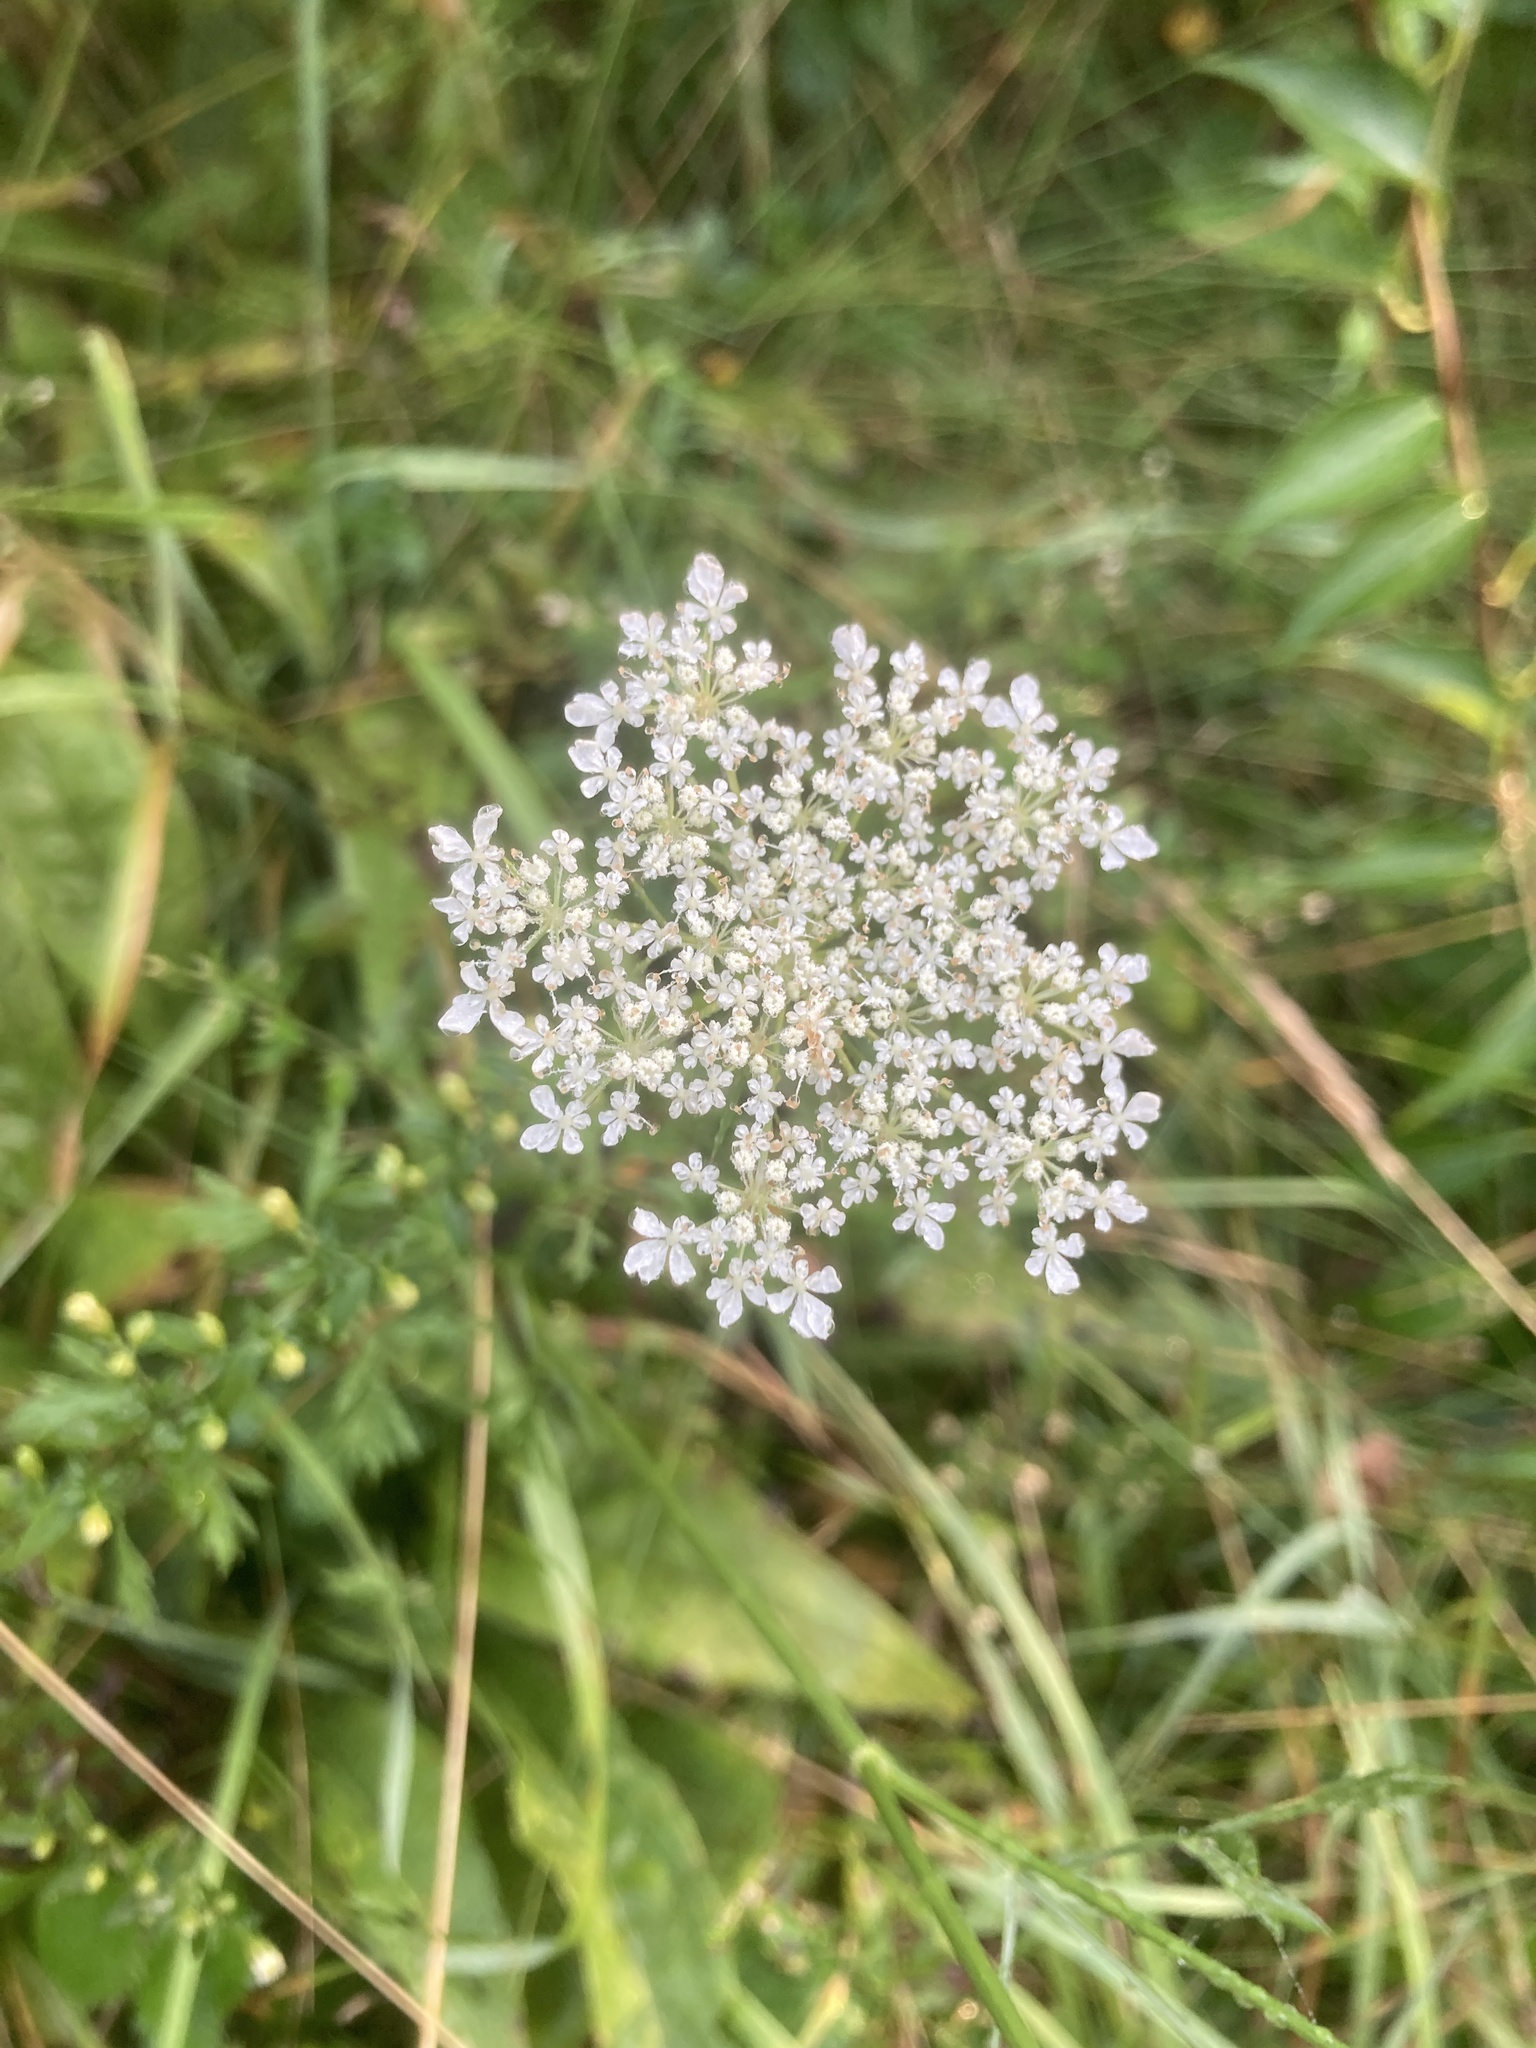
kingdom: Plantae
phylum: Tracheophyta
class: Magnoliopsida
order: Apiales
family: Apiaceae
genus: Daucus
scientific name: Daucus carota
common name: Wild carrot
